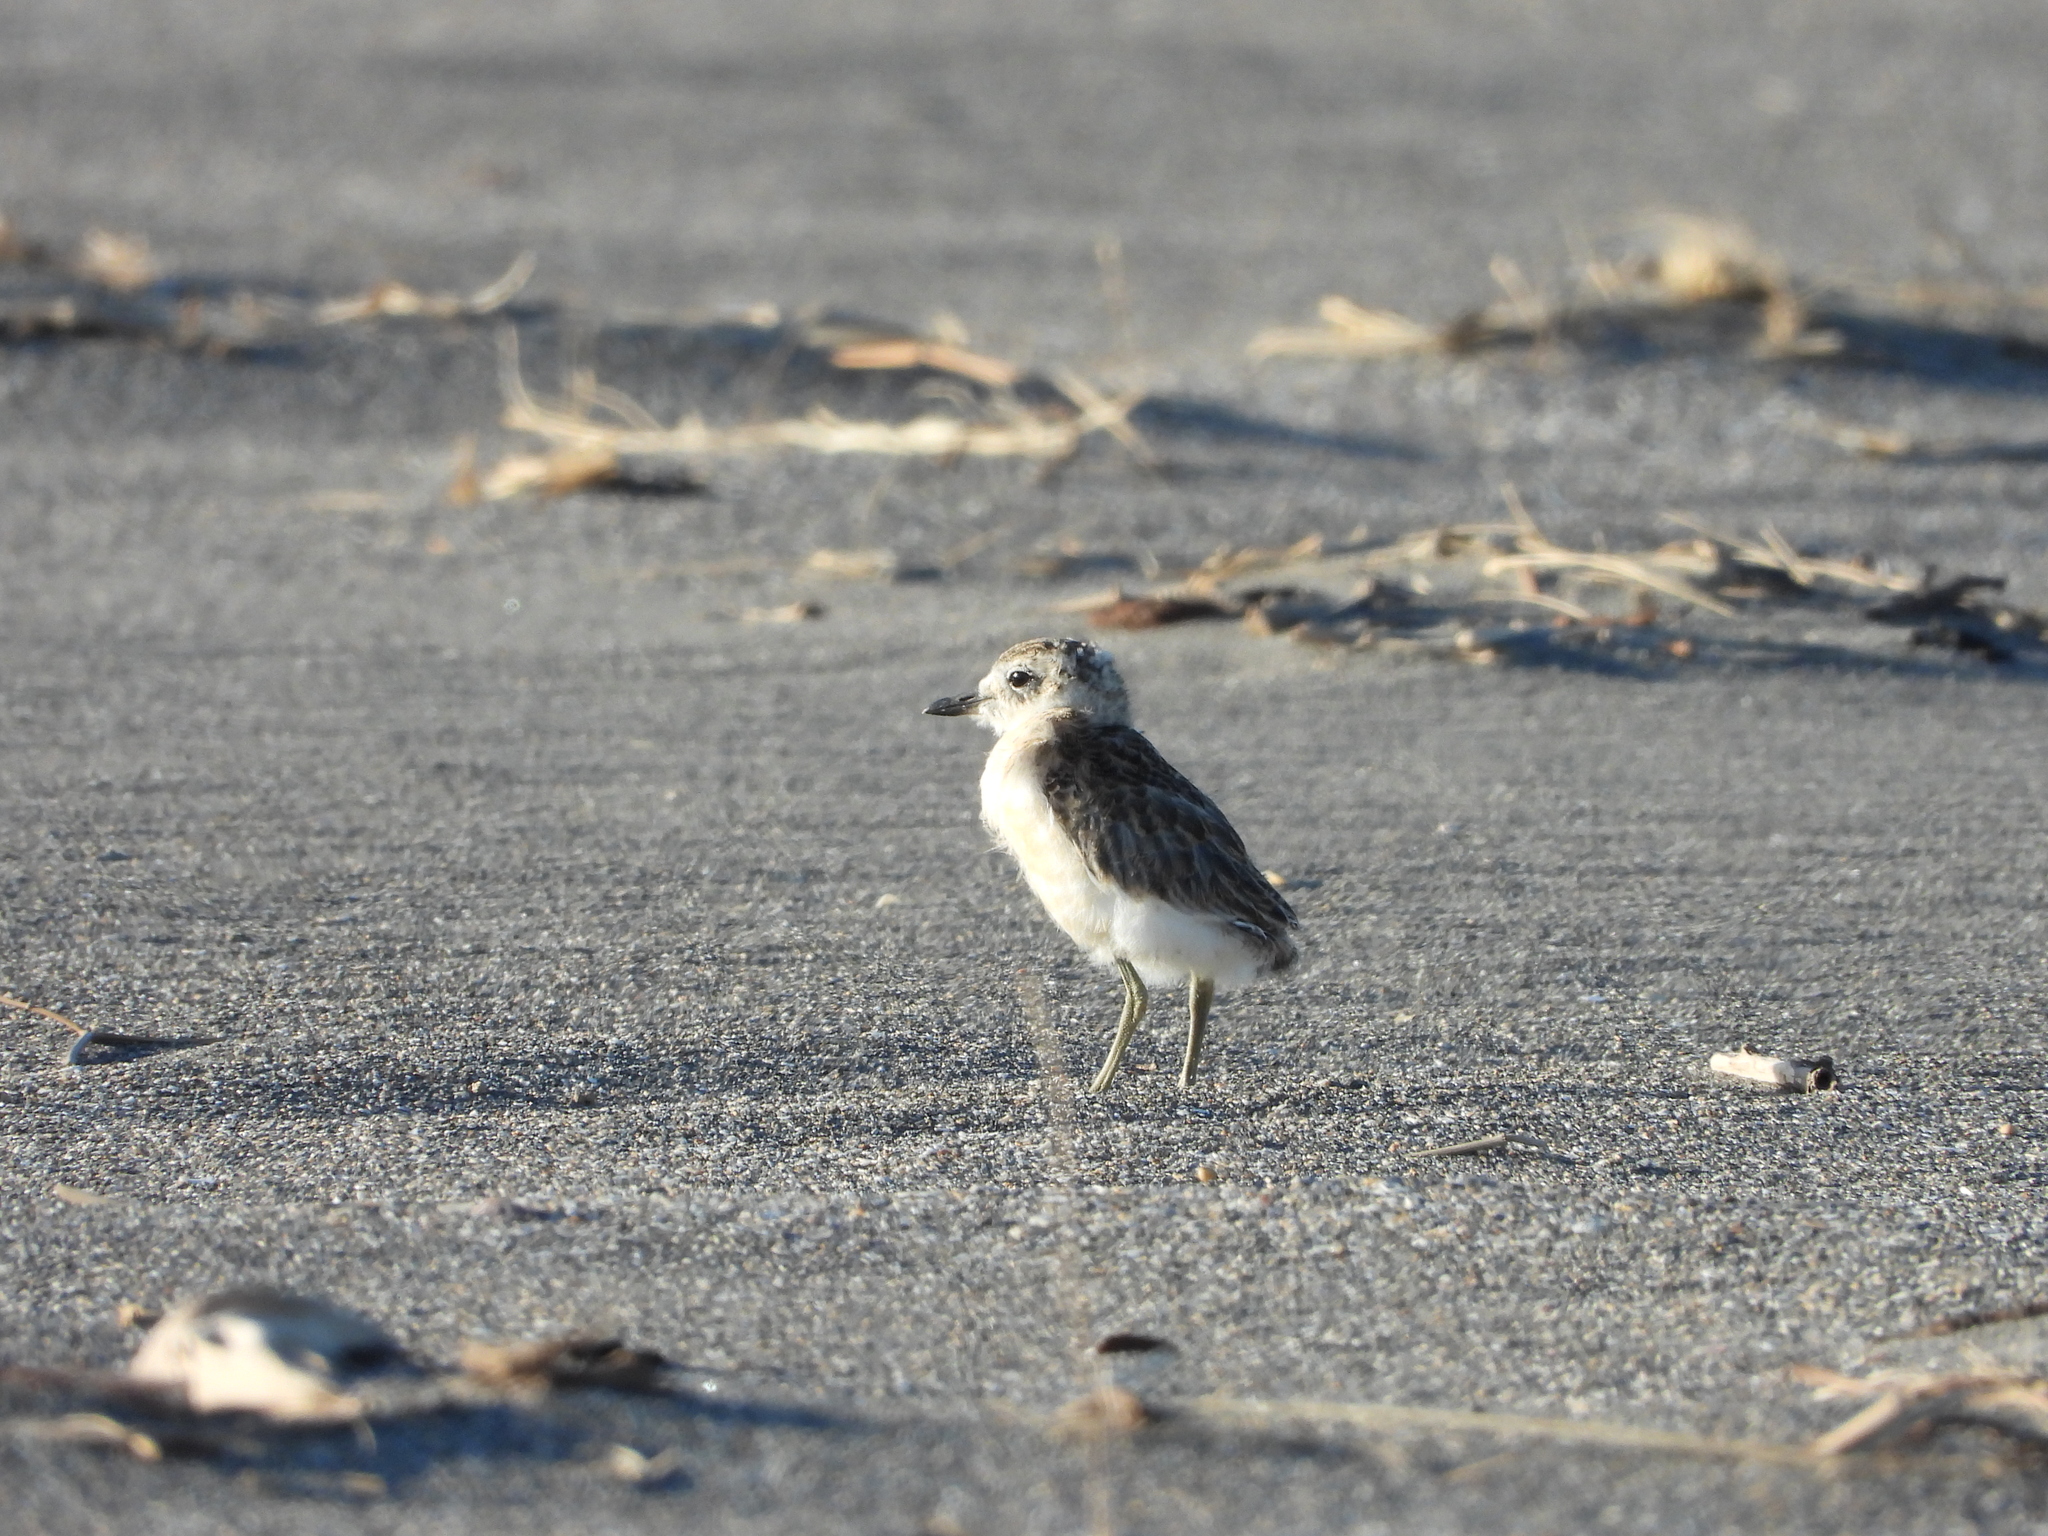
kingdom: Animalia
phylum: Chordata
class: Aves
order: Charadriiformes
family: Charadriidae
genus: Anarhynchus
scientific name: Anarhynchus
